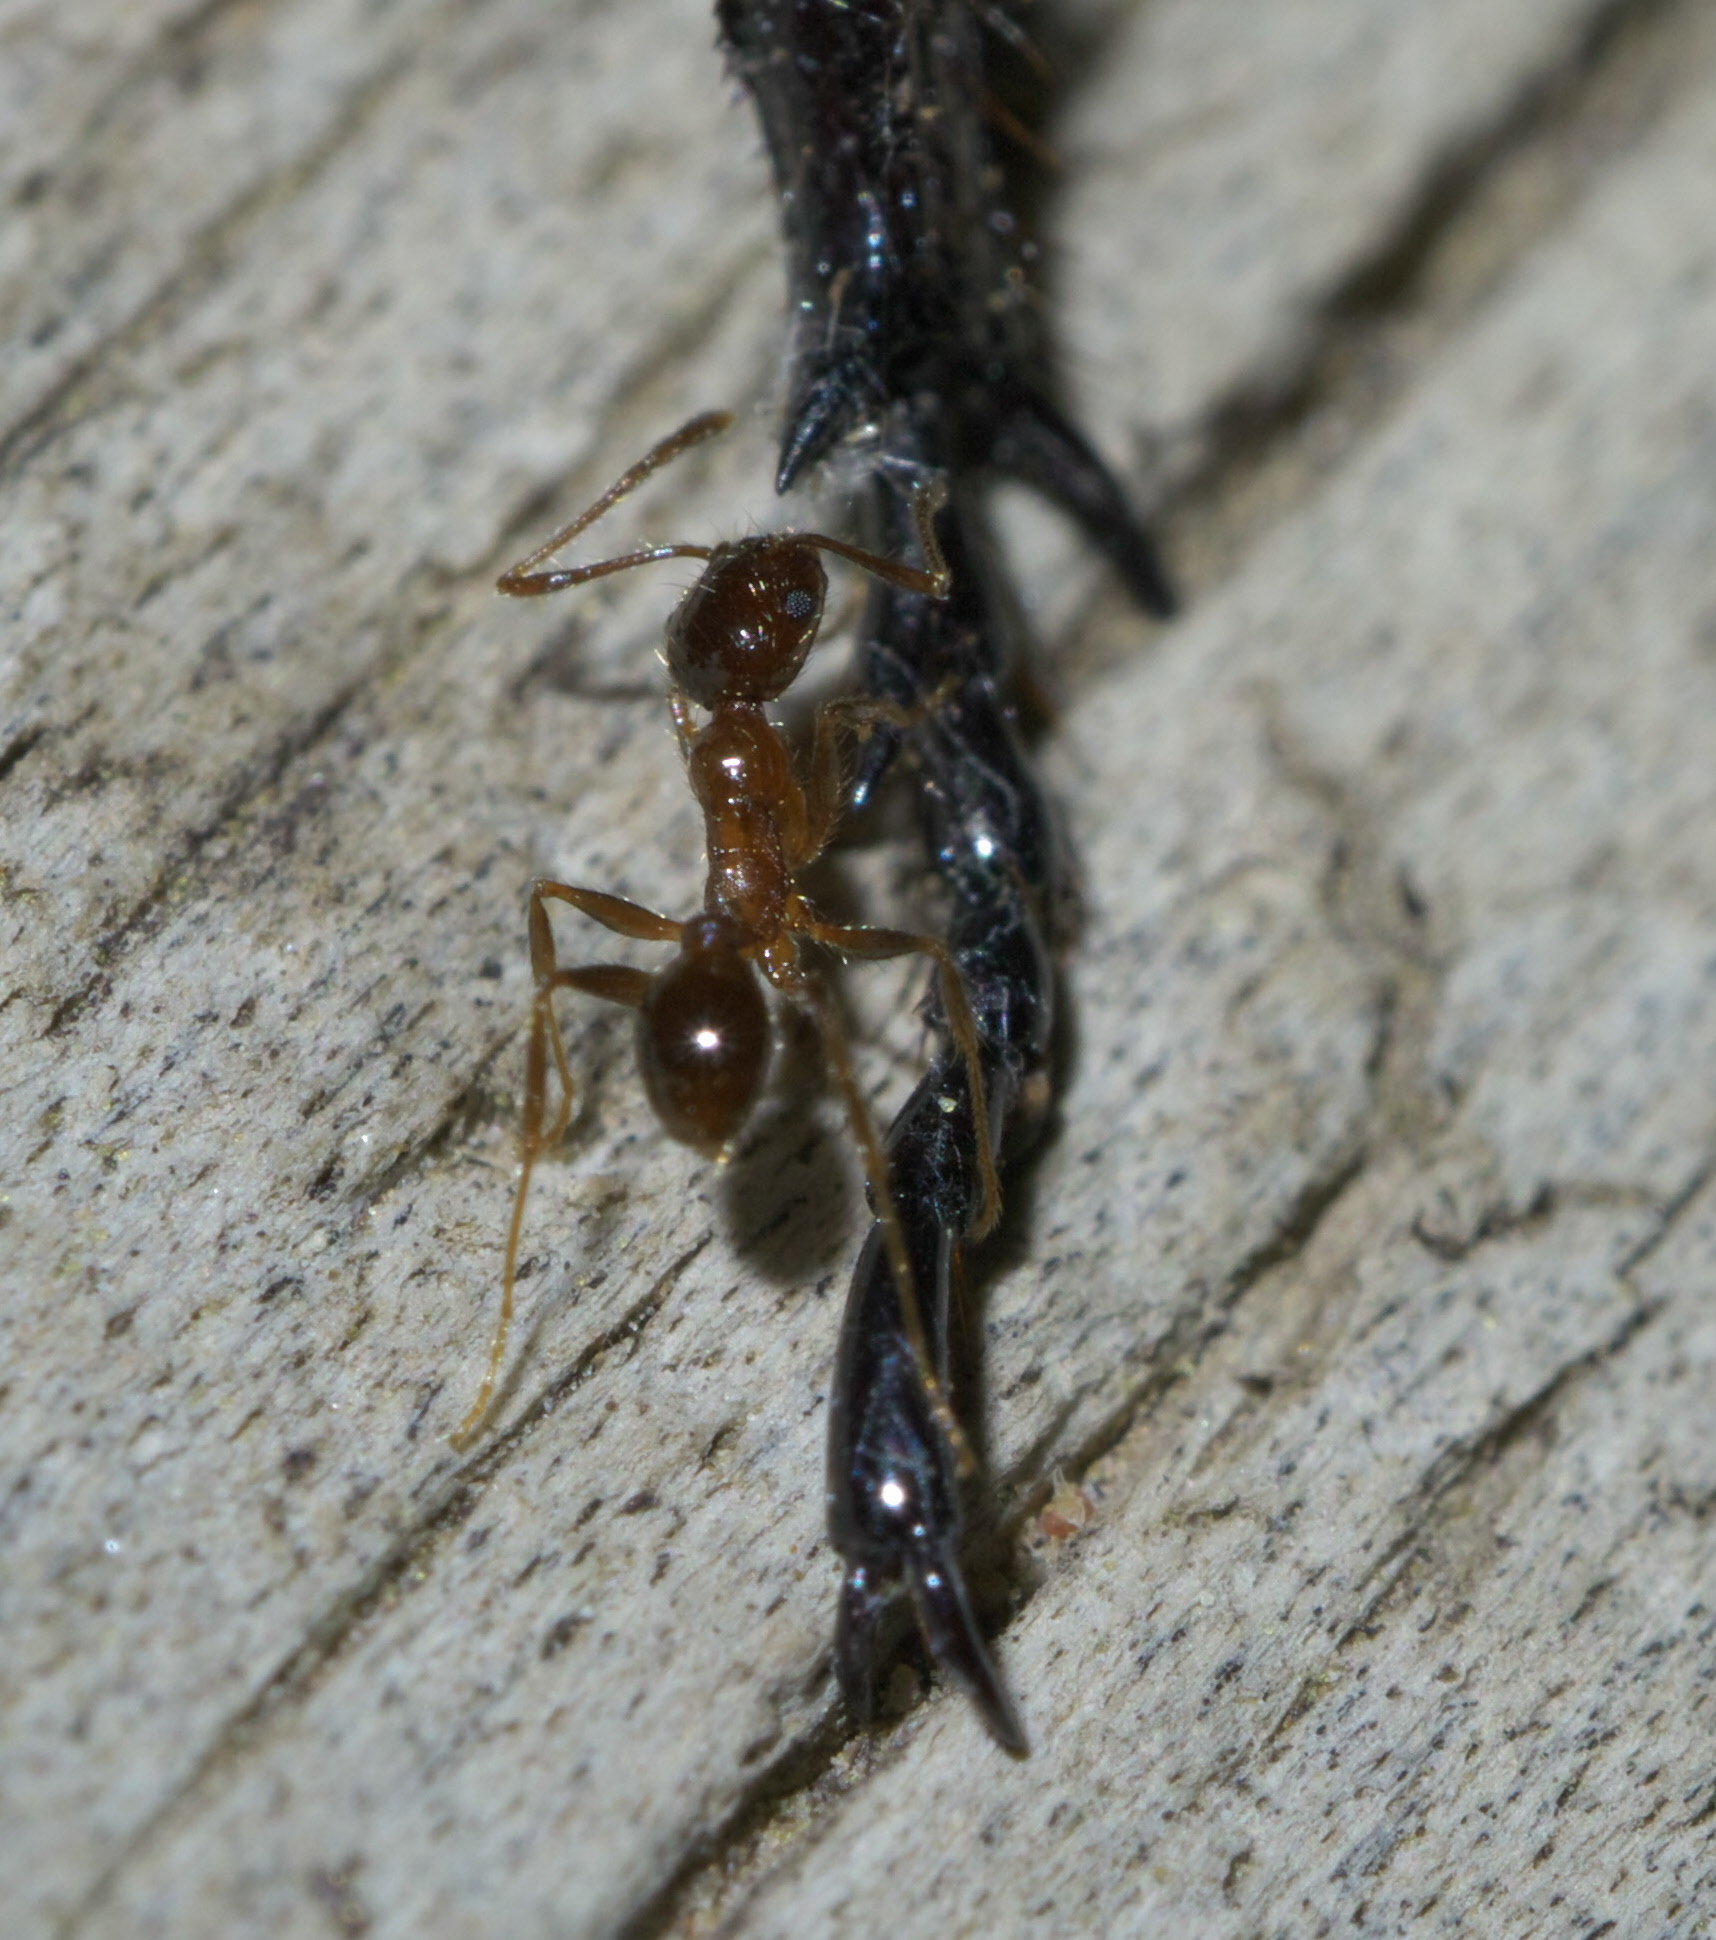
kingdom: Animalia
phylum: Arthropoda
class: Insecta
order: Hymenoptera
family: Formicidae
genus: Pheidole
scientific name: Pheidole dentata
